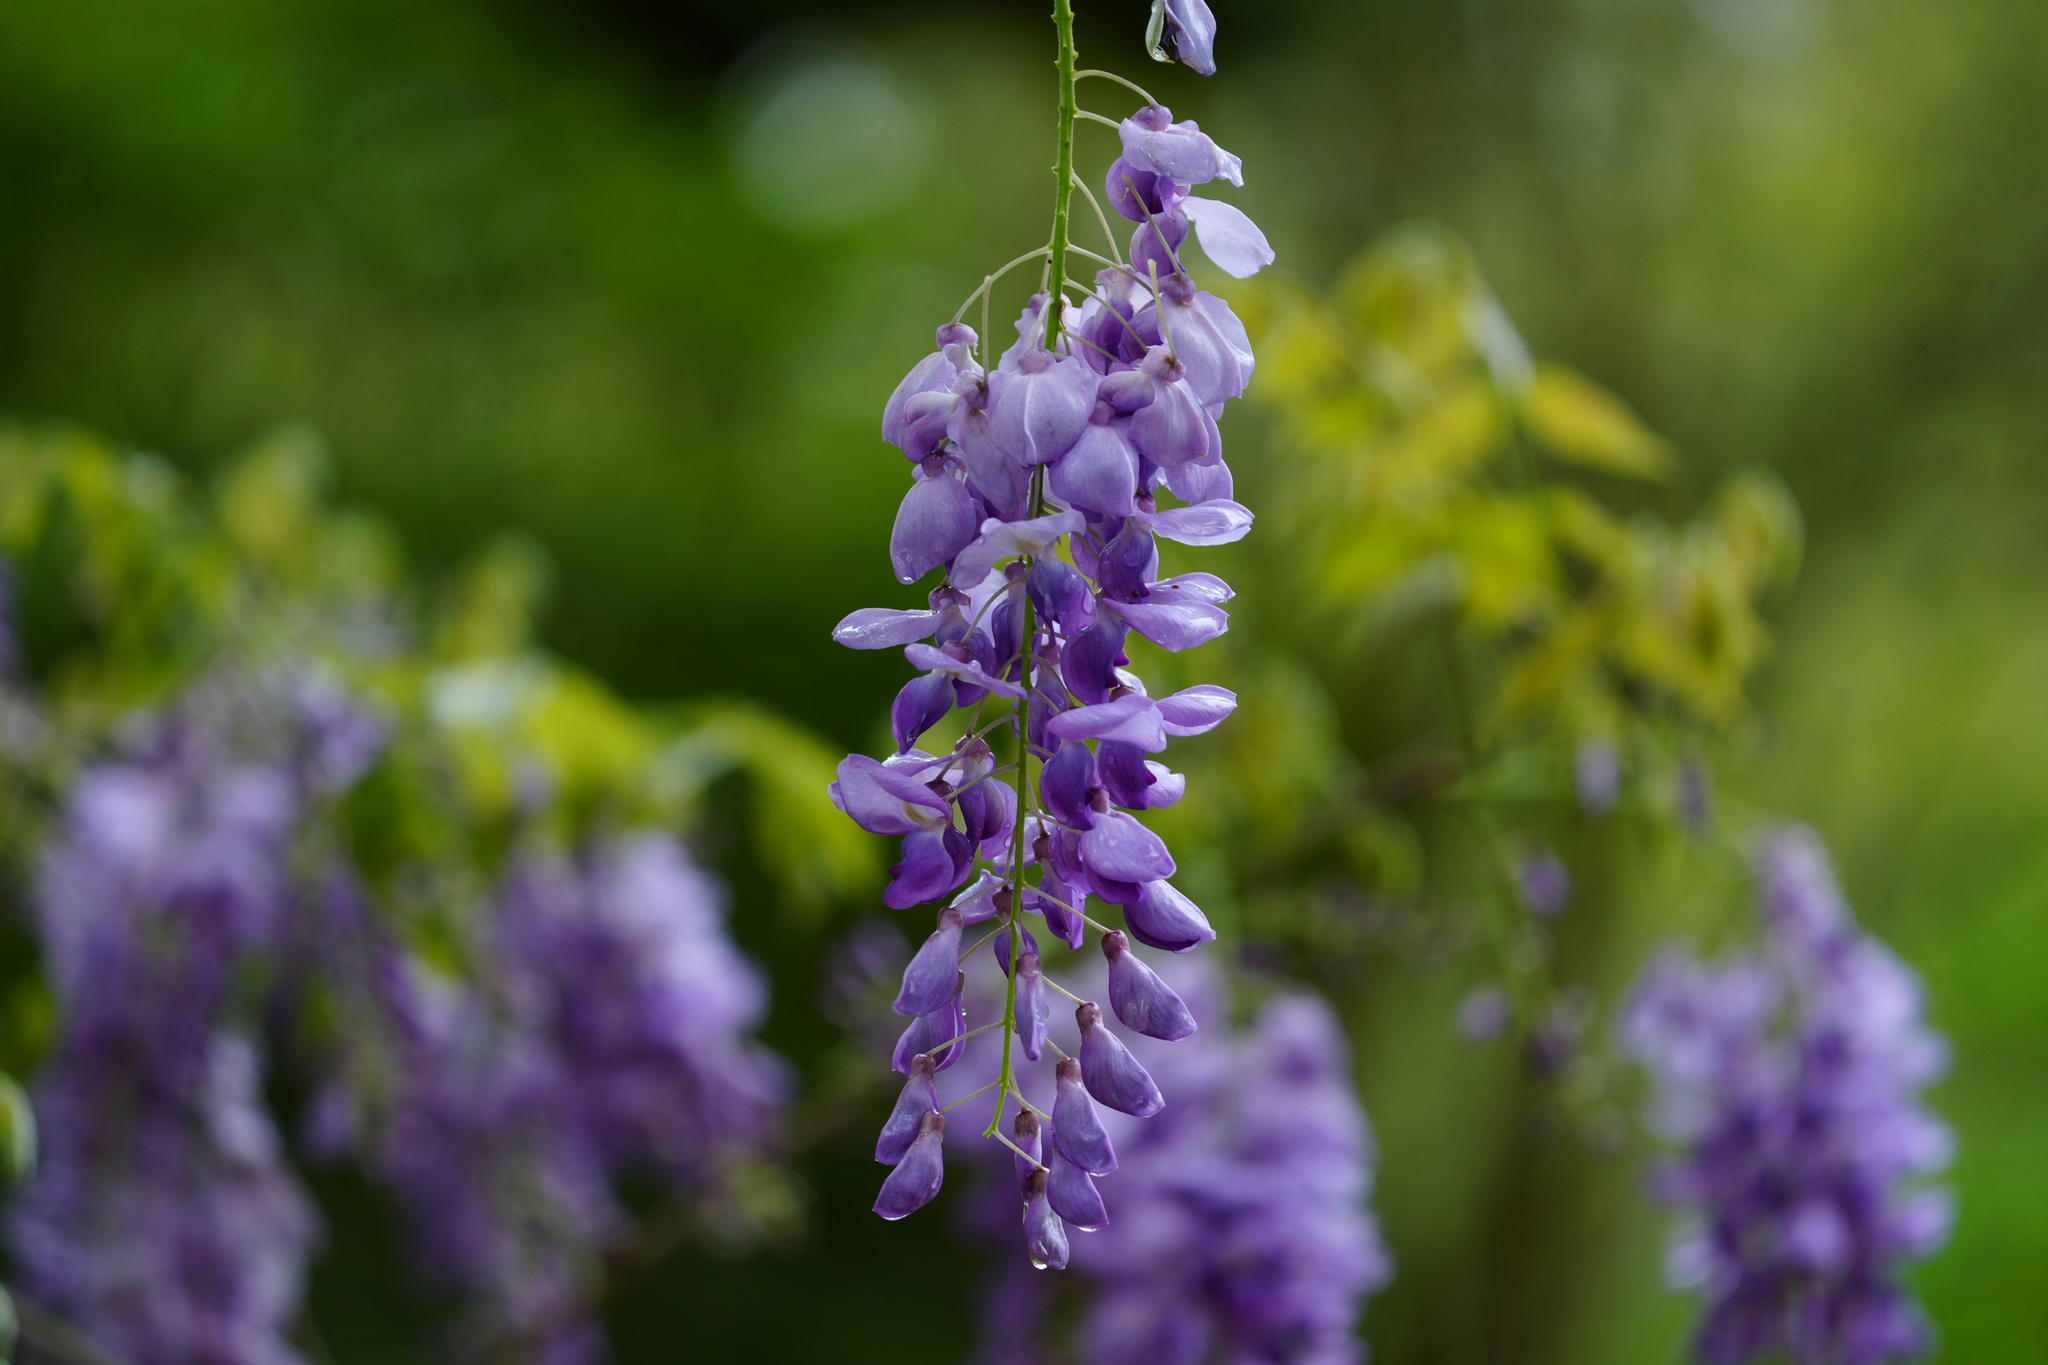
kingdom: Plantae
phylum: Tracheophyta
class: Magnoliopsida
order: Fabales
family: Fabaceae
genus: Wisteria
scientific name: Wisteria sinensis
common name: Chinese wisteria
